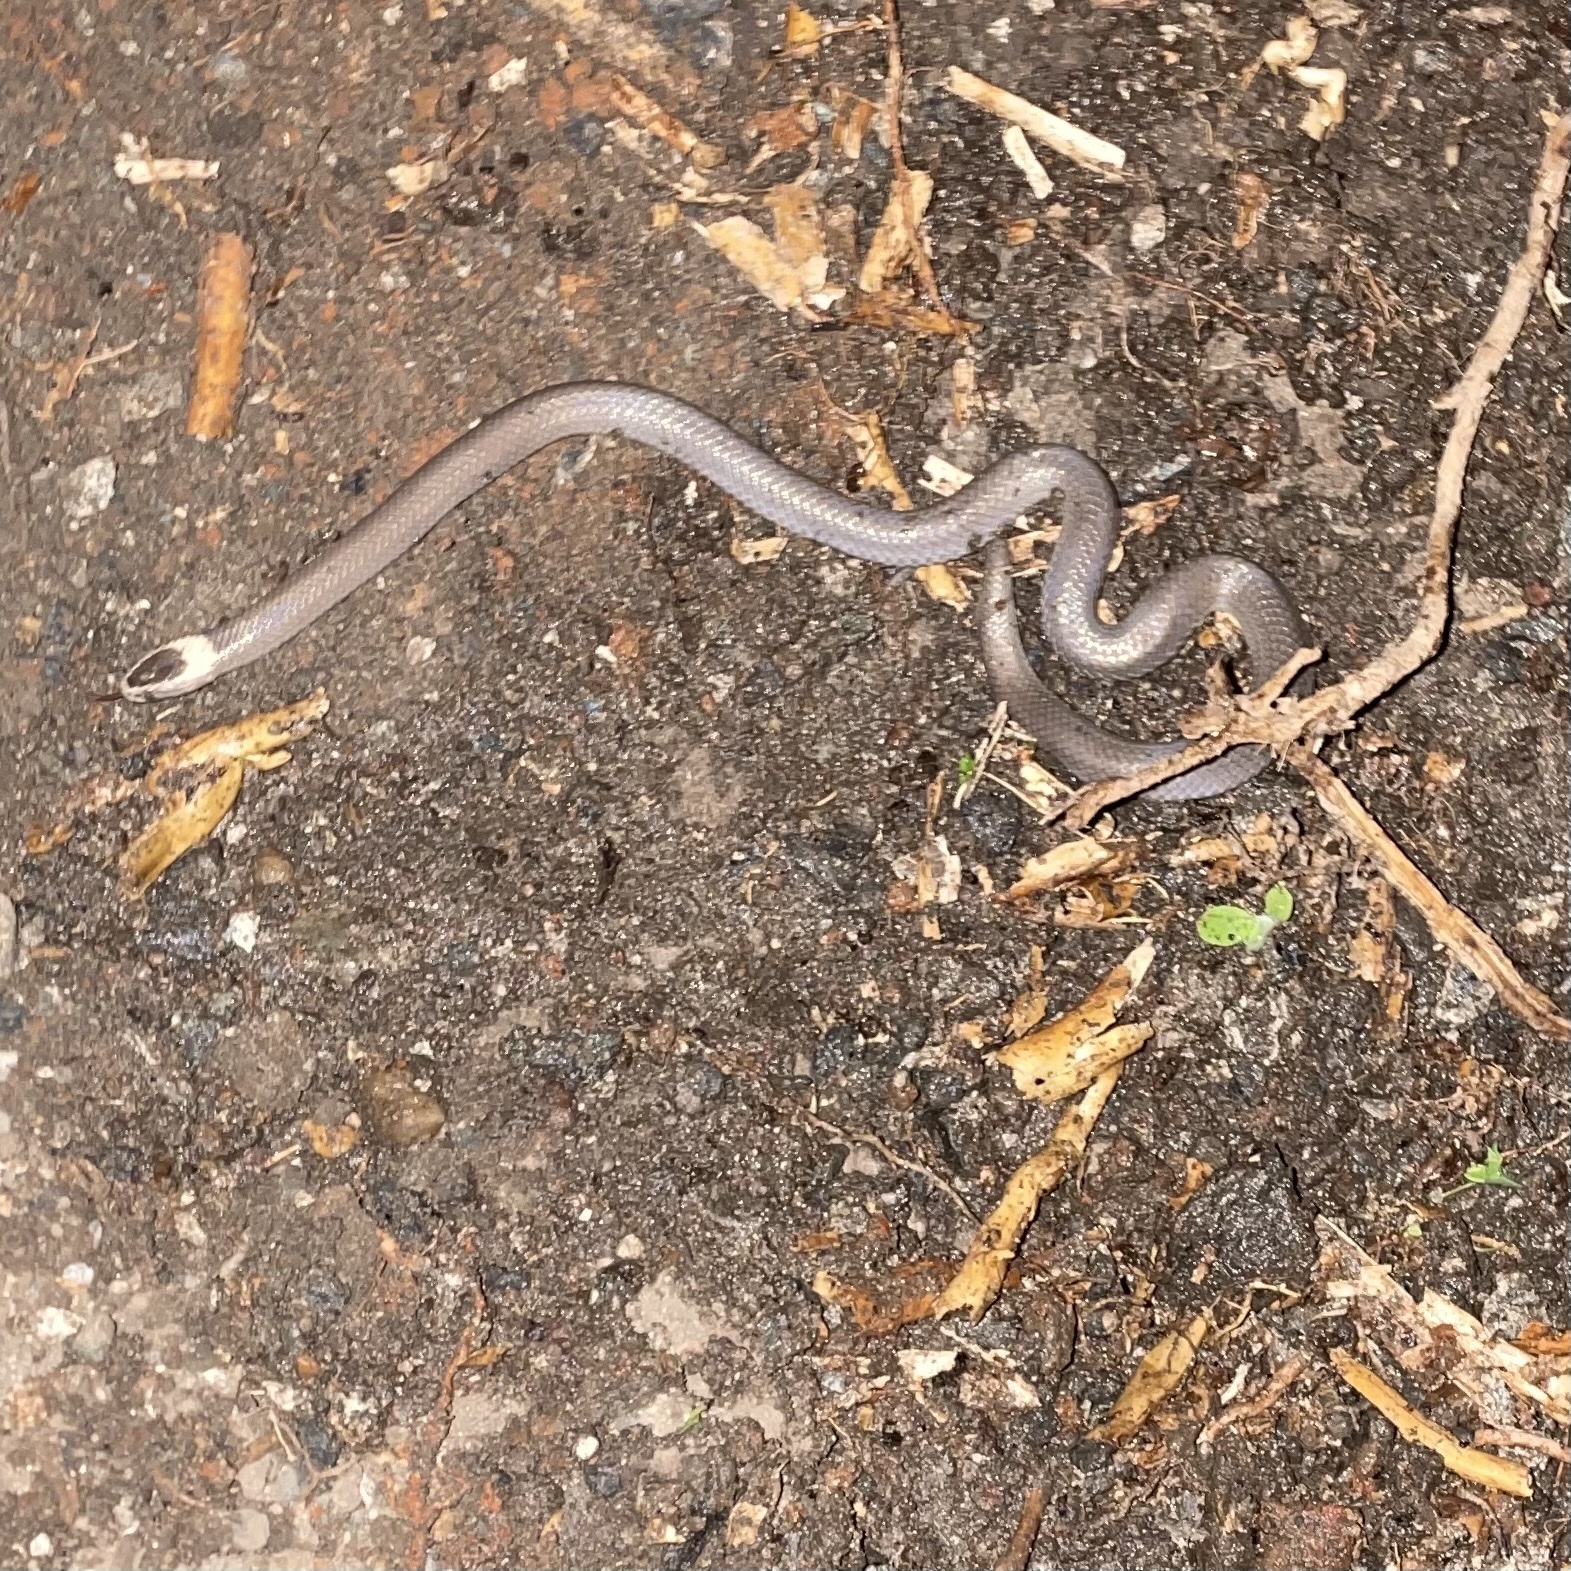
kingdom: Animalia
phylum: Chordata
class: Squamata
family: Elapidae
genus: Cacophis
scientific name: Cacophis harriettae
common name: White-crowned snake
